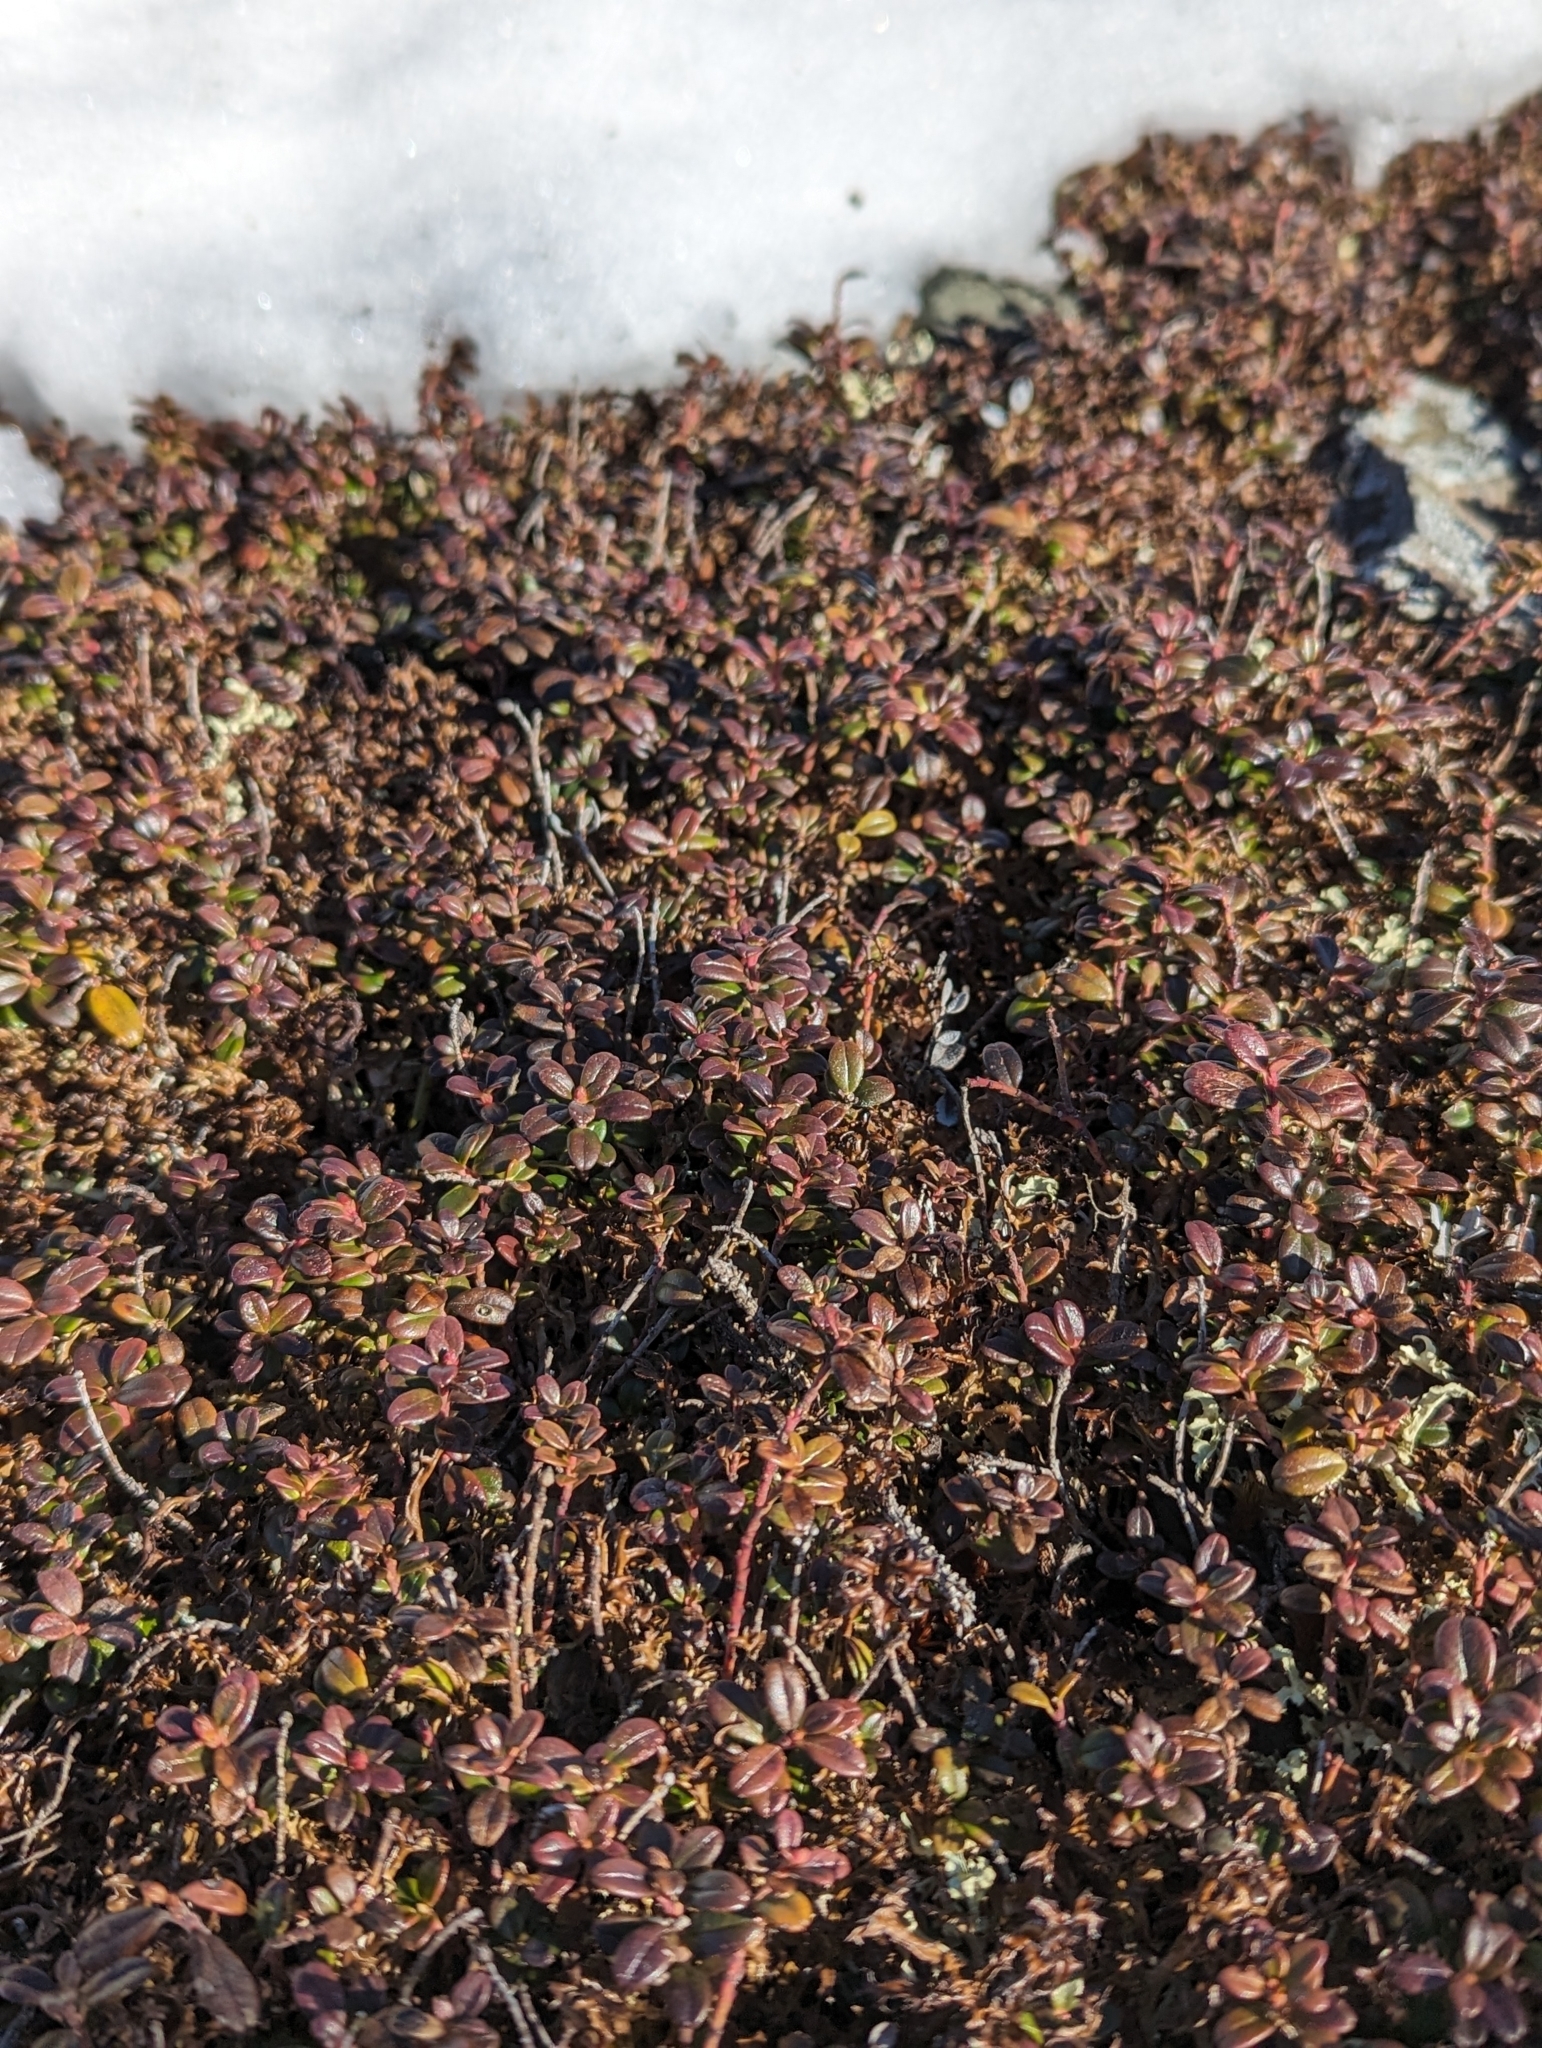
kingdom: Plantae
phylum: Tracheophyta
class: Magnoliopsida
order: Ericales
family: Ericaceae
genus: Vaccinium
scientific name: Vaccinium vitis-idaea
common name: Cowberry
